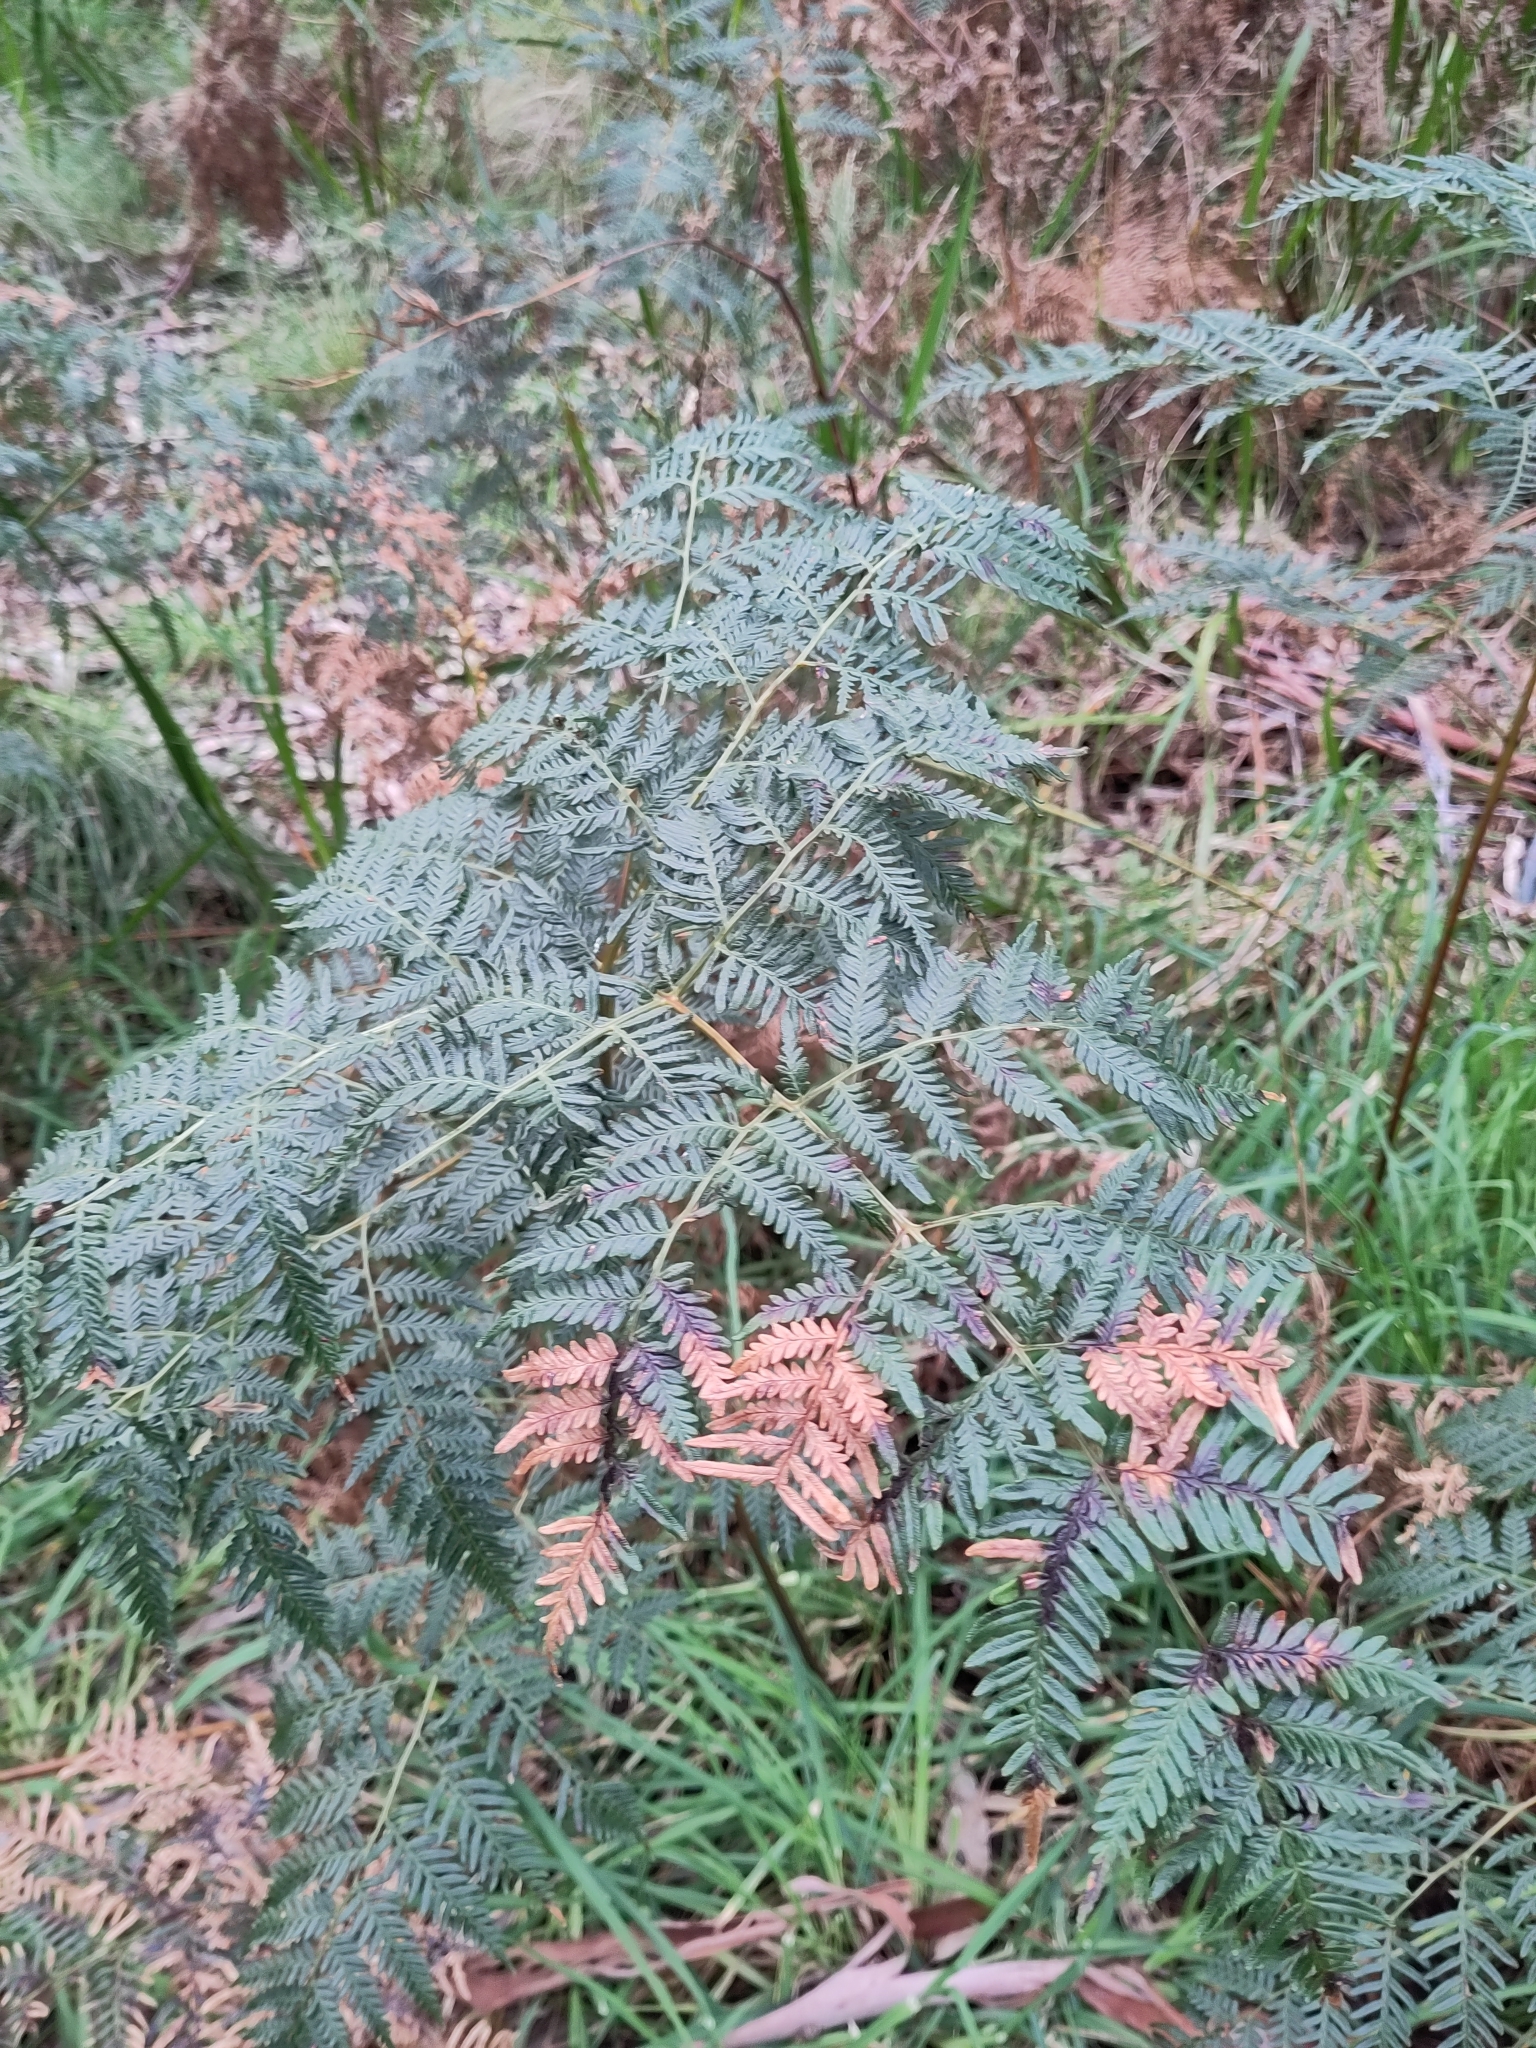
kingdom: Plantae
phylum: Tracheophyta
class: Polypodiopsida
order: Polypodiales
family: Dennstaedtiaceae
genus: Pteridium
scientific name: Pteridium esculentum
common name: Bracken fern
